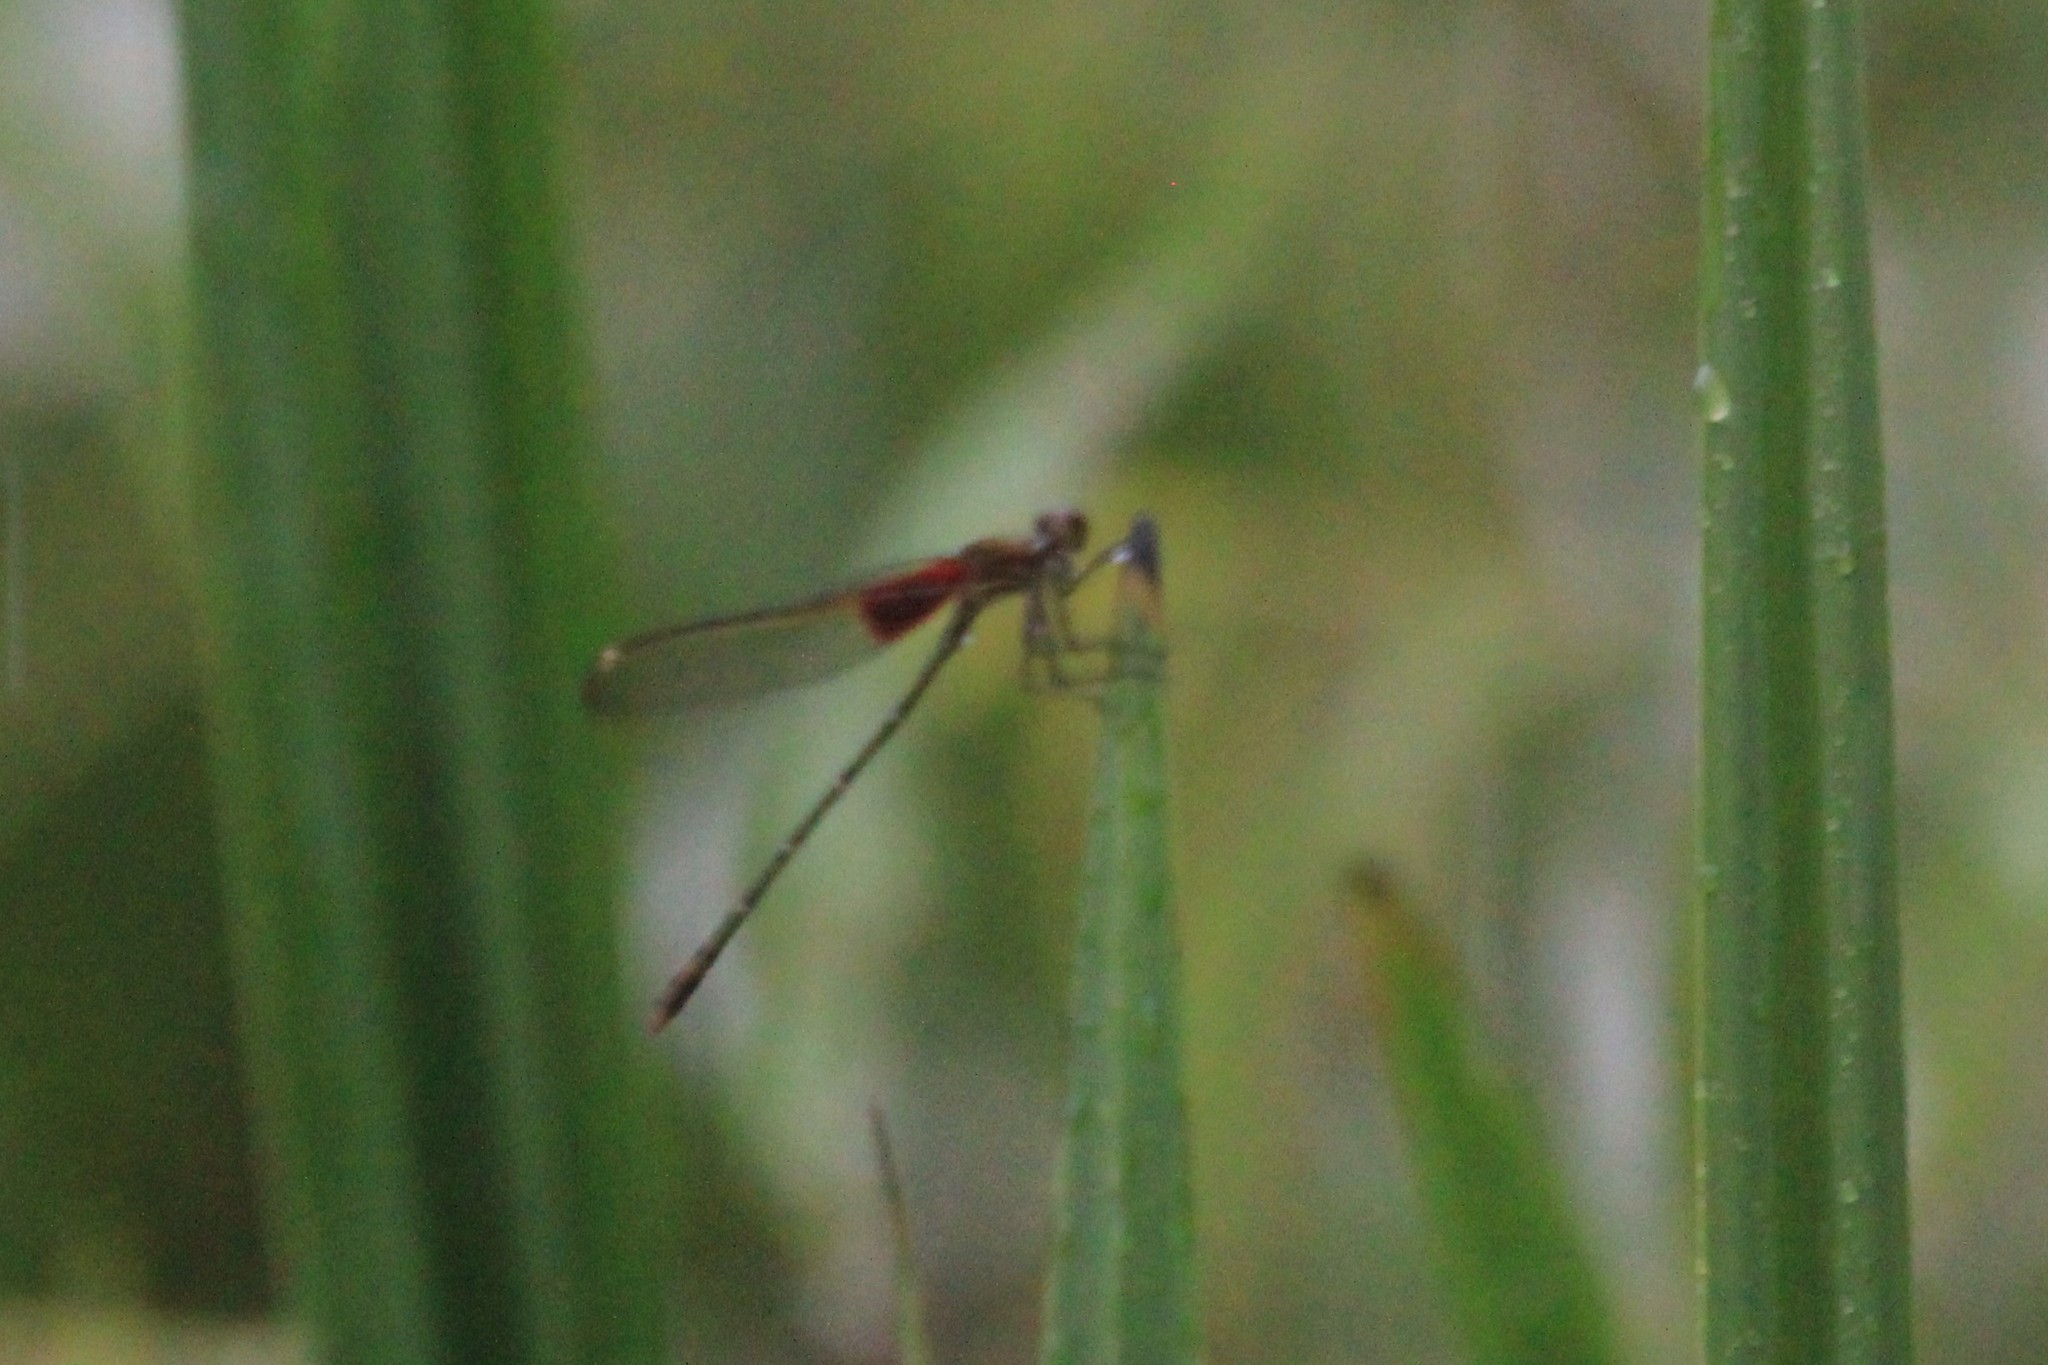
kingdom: Animalia
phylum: Arthropoda
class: Insecta
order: Odonata
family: Calopterygidae
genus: Hetaerina
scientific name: Hetaerina americana
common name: American rubyspot
